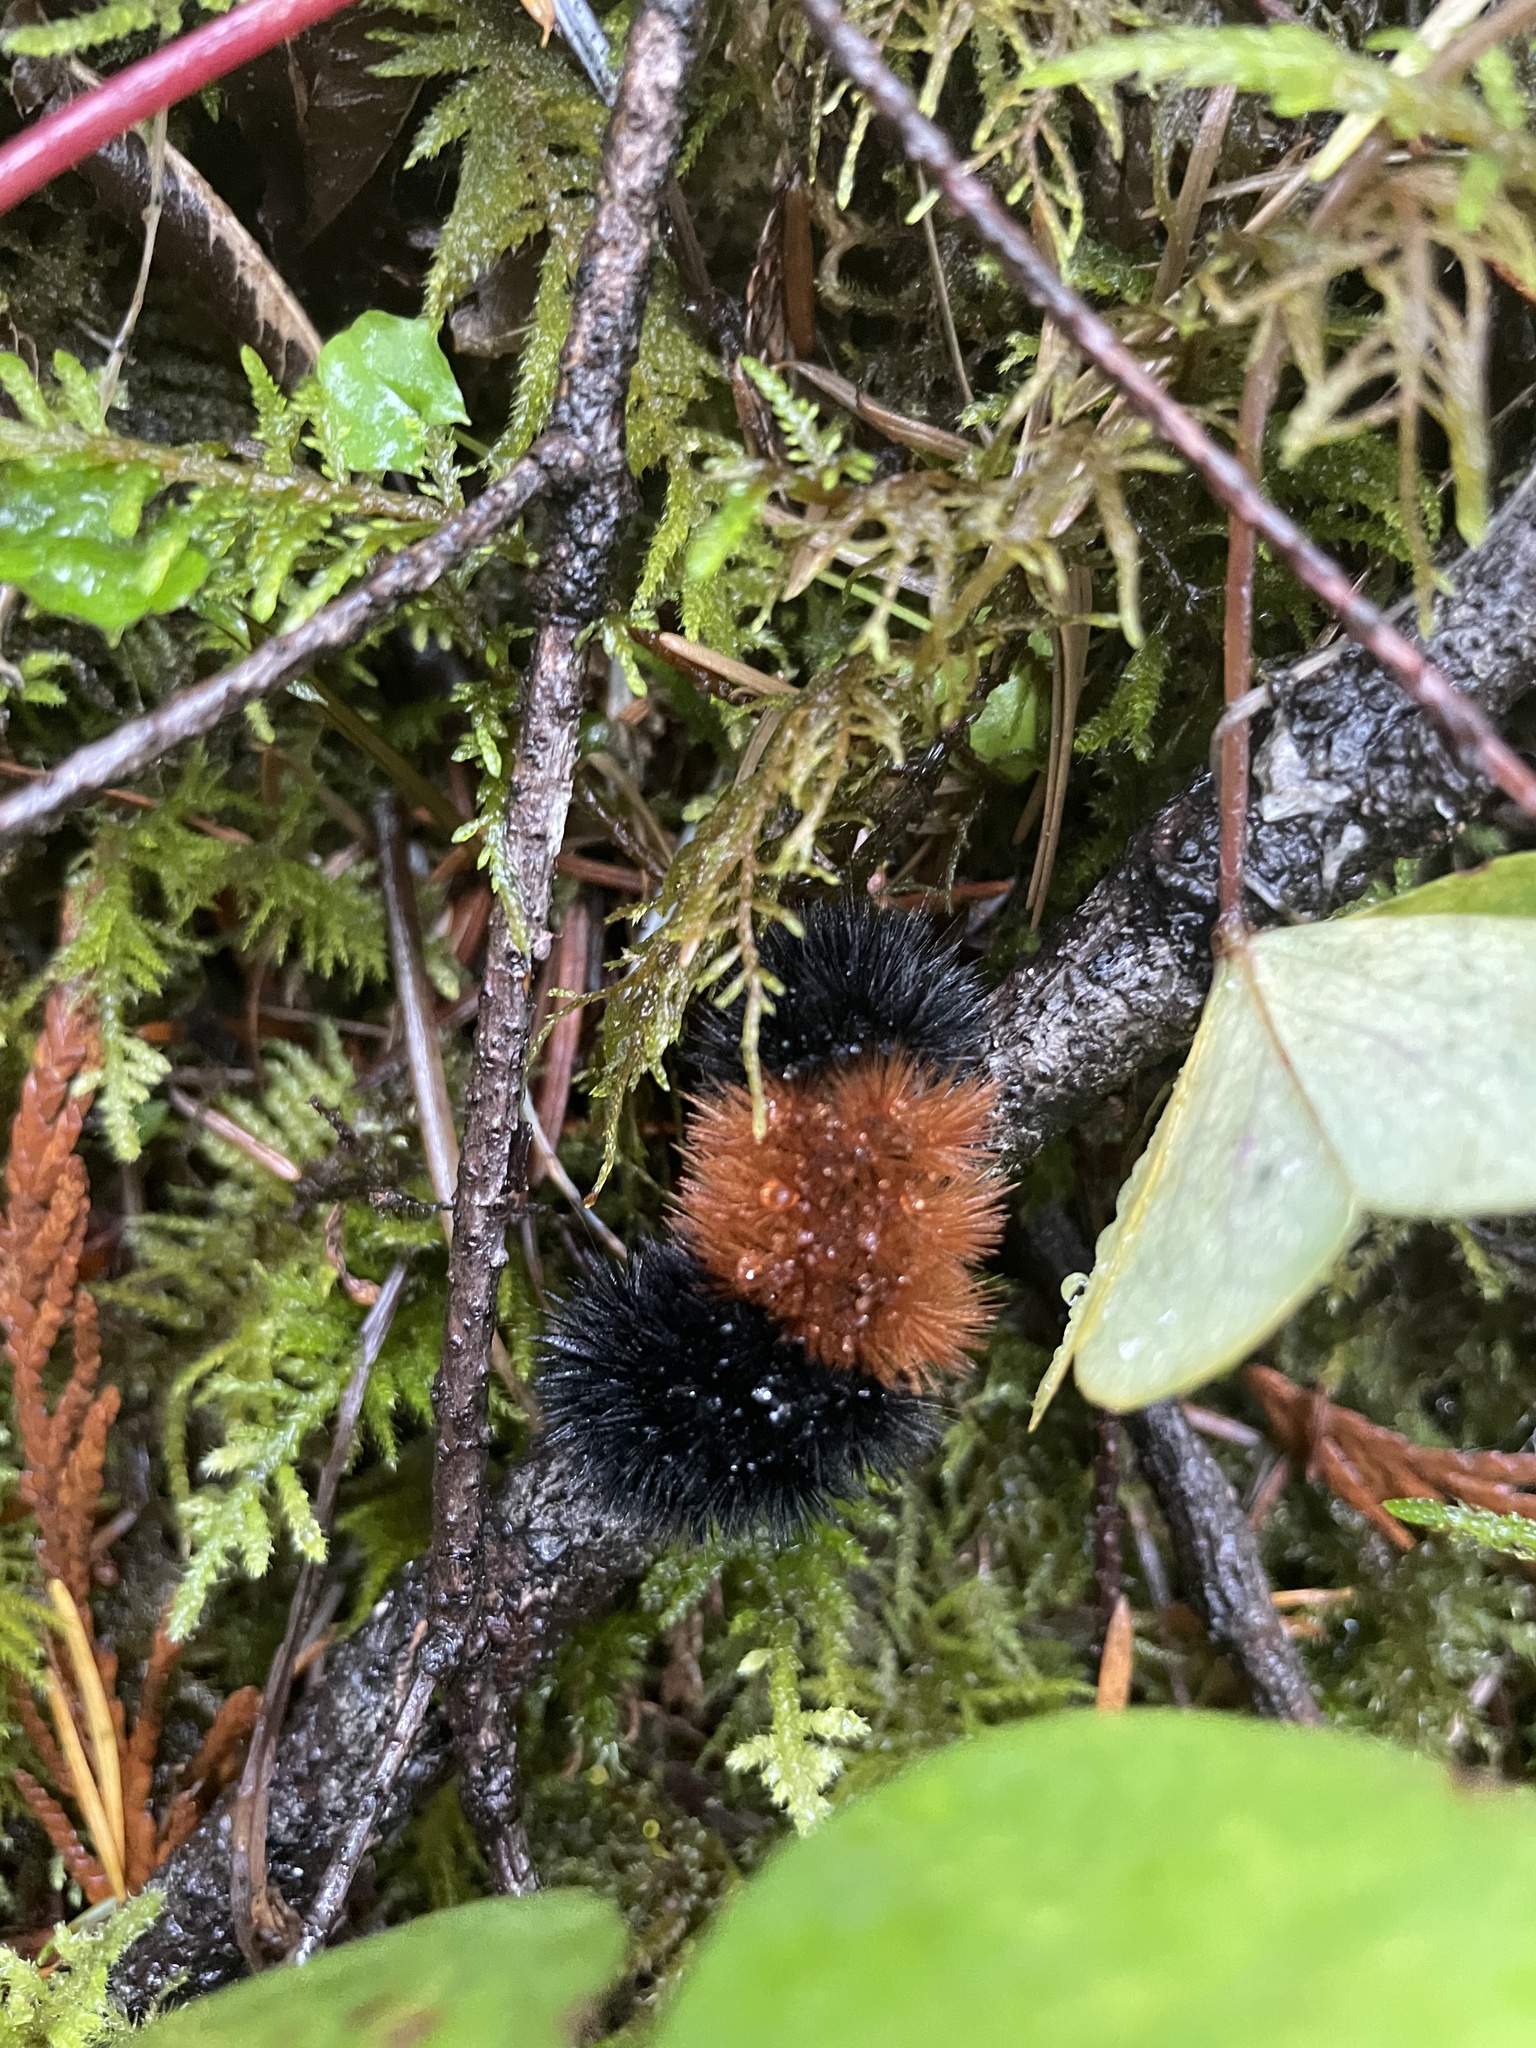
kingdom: Animalia
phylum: Arthropoda
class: Insecta
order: Lepidoptera
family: Erebidae
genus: Pyrrharctia
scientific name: Pyrrharctia isabella
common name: Isabella tiger moth
